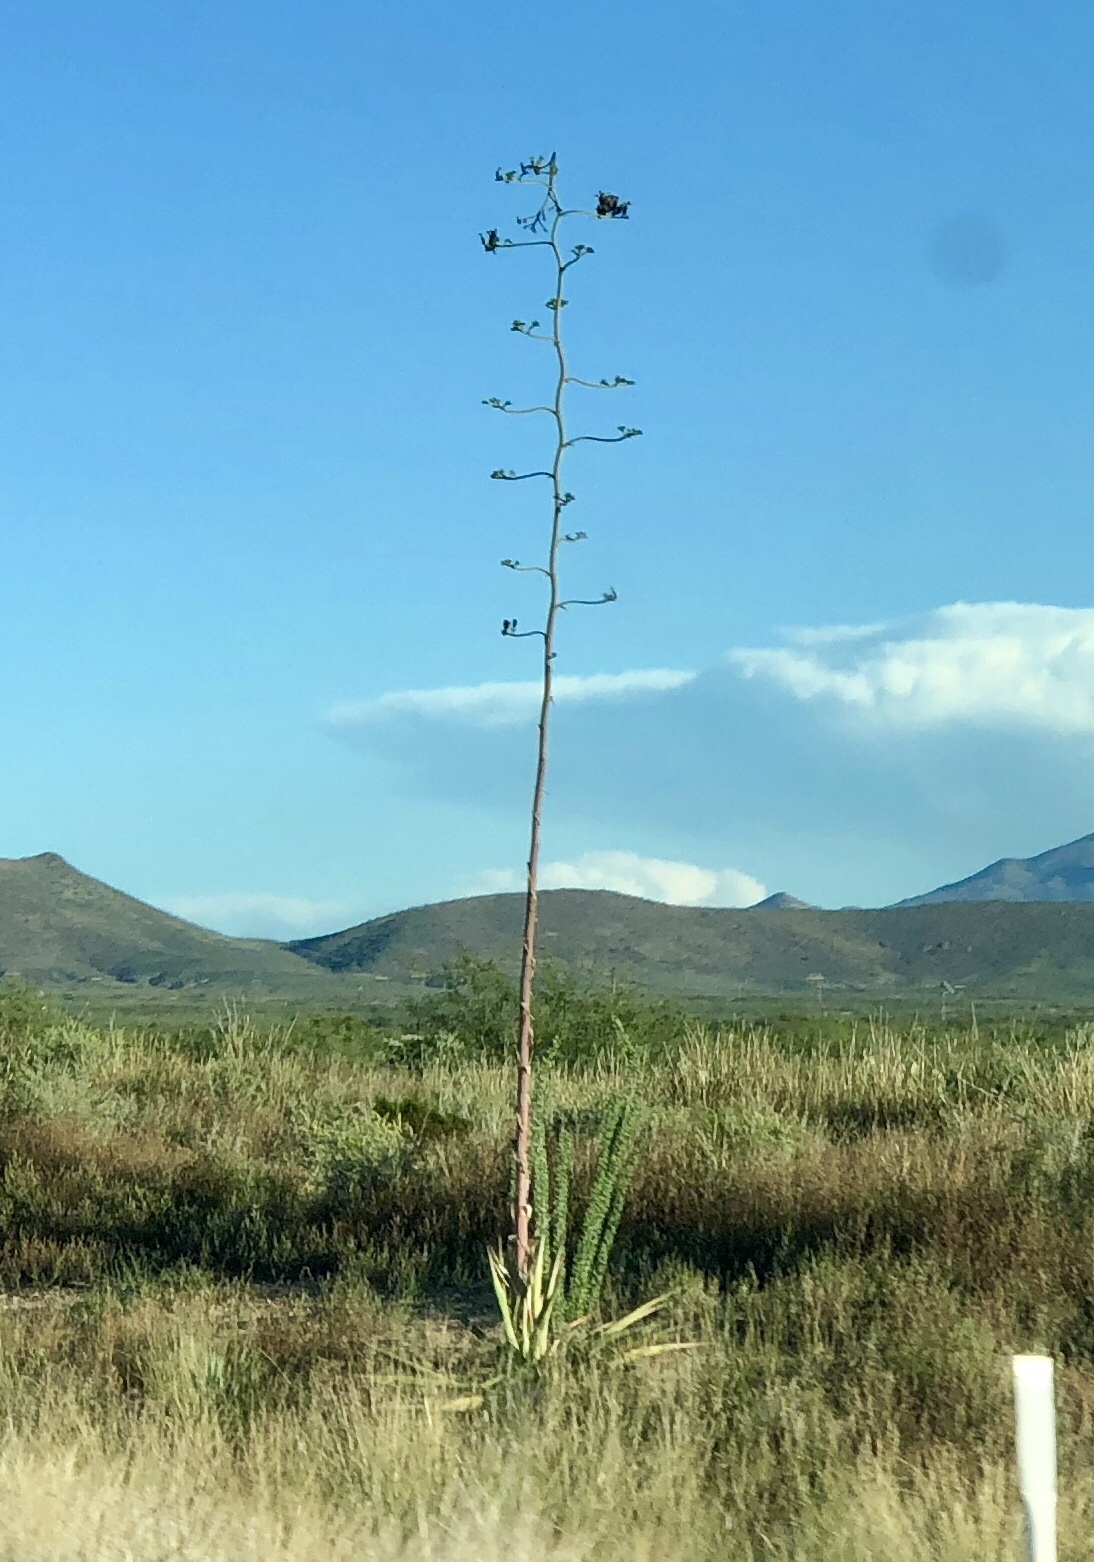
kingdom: Plantae
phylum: Tracheophyta
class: Liliopsida
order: Asparagales
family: Asparagaceae
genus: Agave
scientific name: Agave palmeri
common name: Palmer agave
